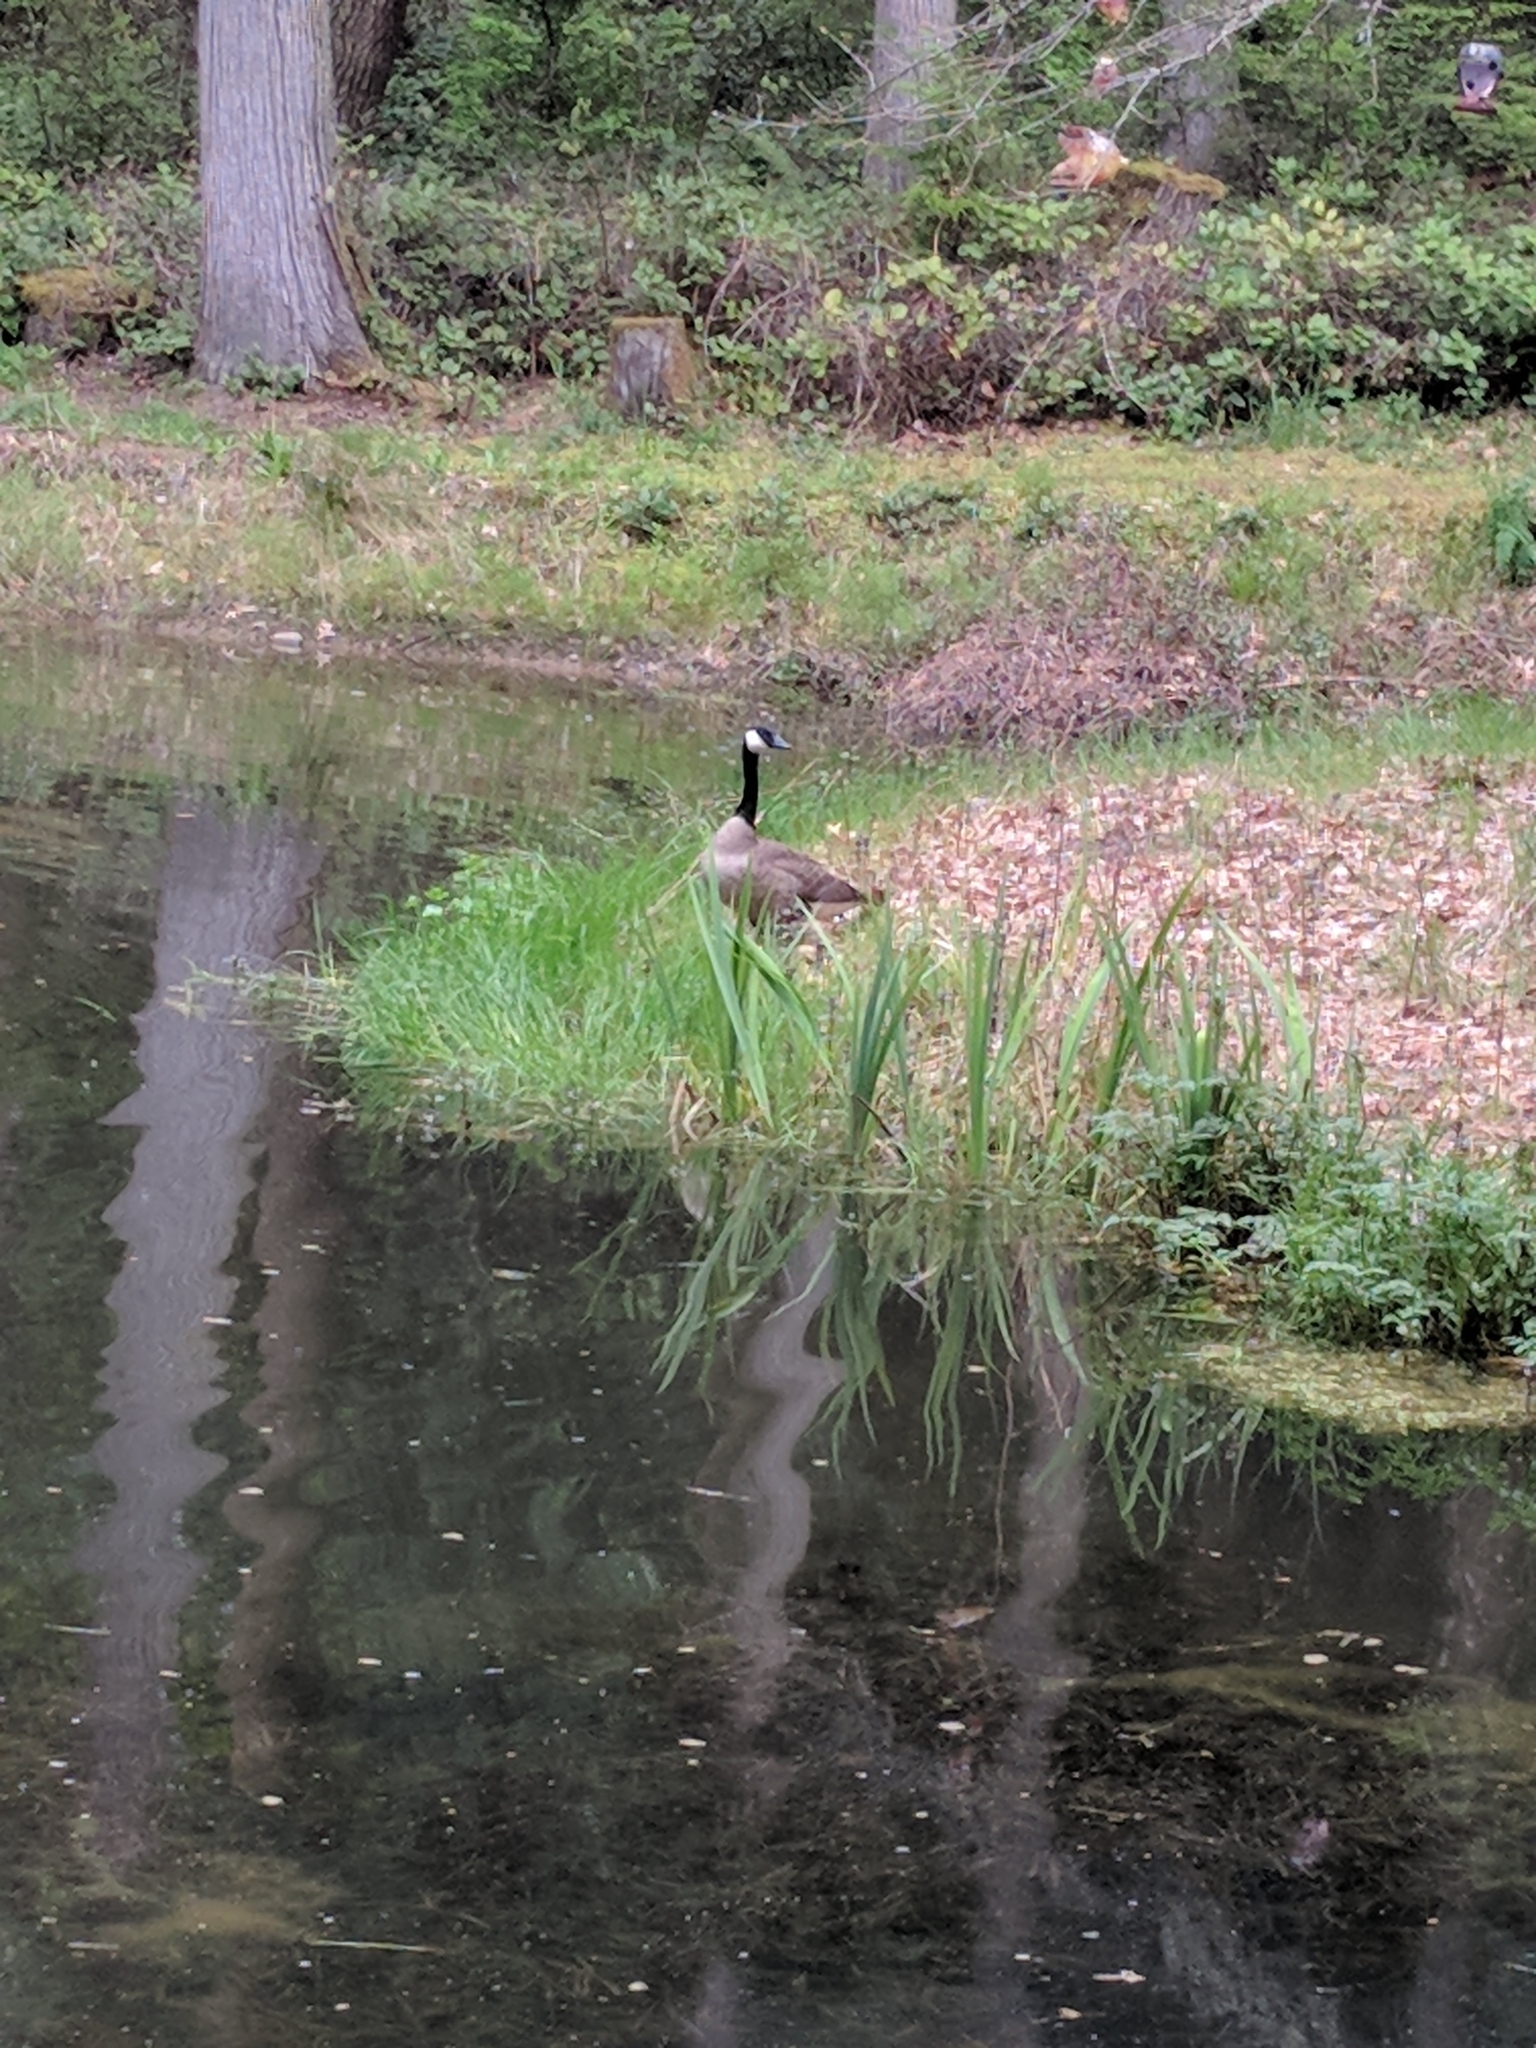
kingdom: Animalia
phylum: Chordata
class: Aves
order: Anseriformes
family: Anatidae
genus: Branta
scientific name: Branta canadensis
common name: Canada goose
